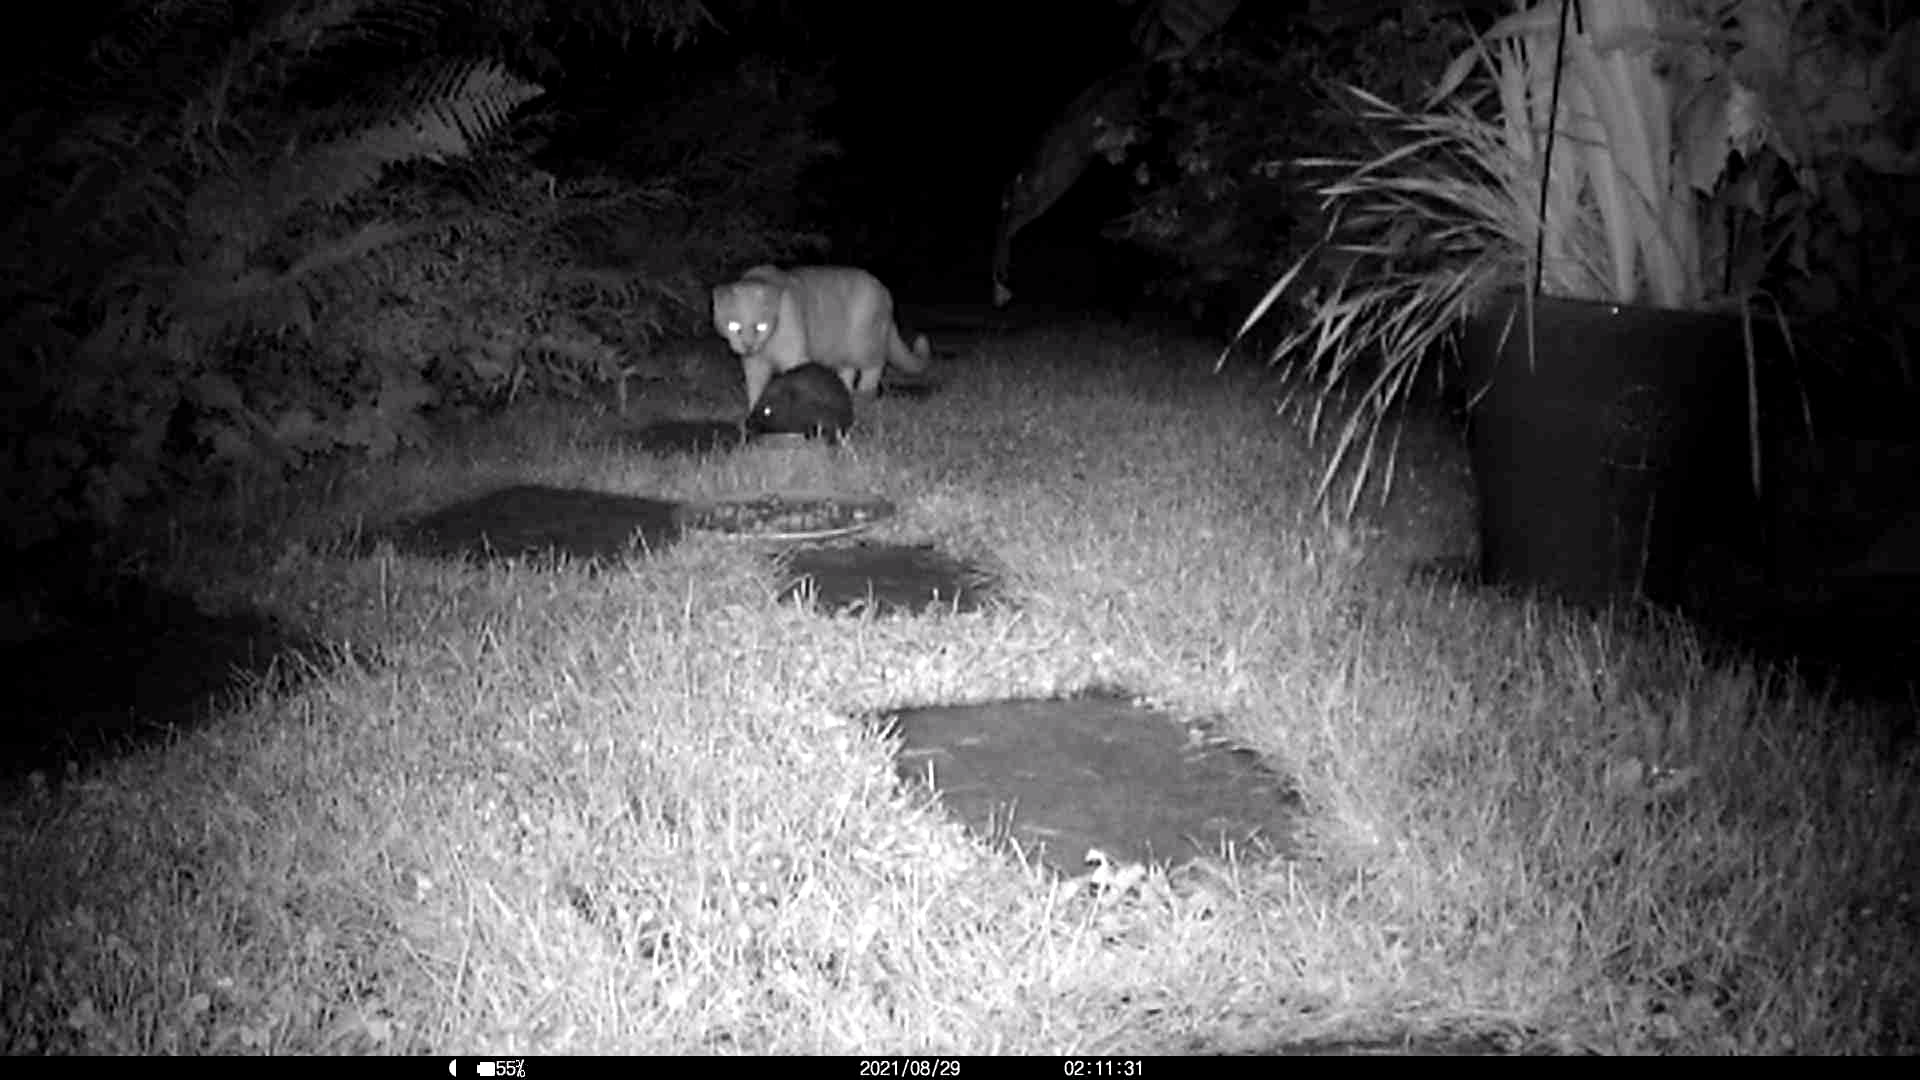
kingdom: Animalia
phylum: Chordata
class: Mammalia
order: Erinaceomorpha
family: Erinaceidae
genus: Erinaceus
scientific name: Erinaceus europaeus
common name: West european hedgehog
